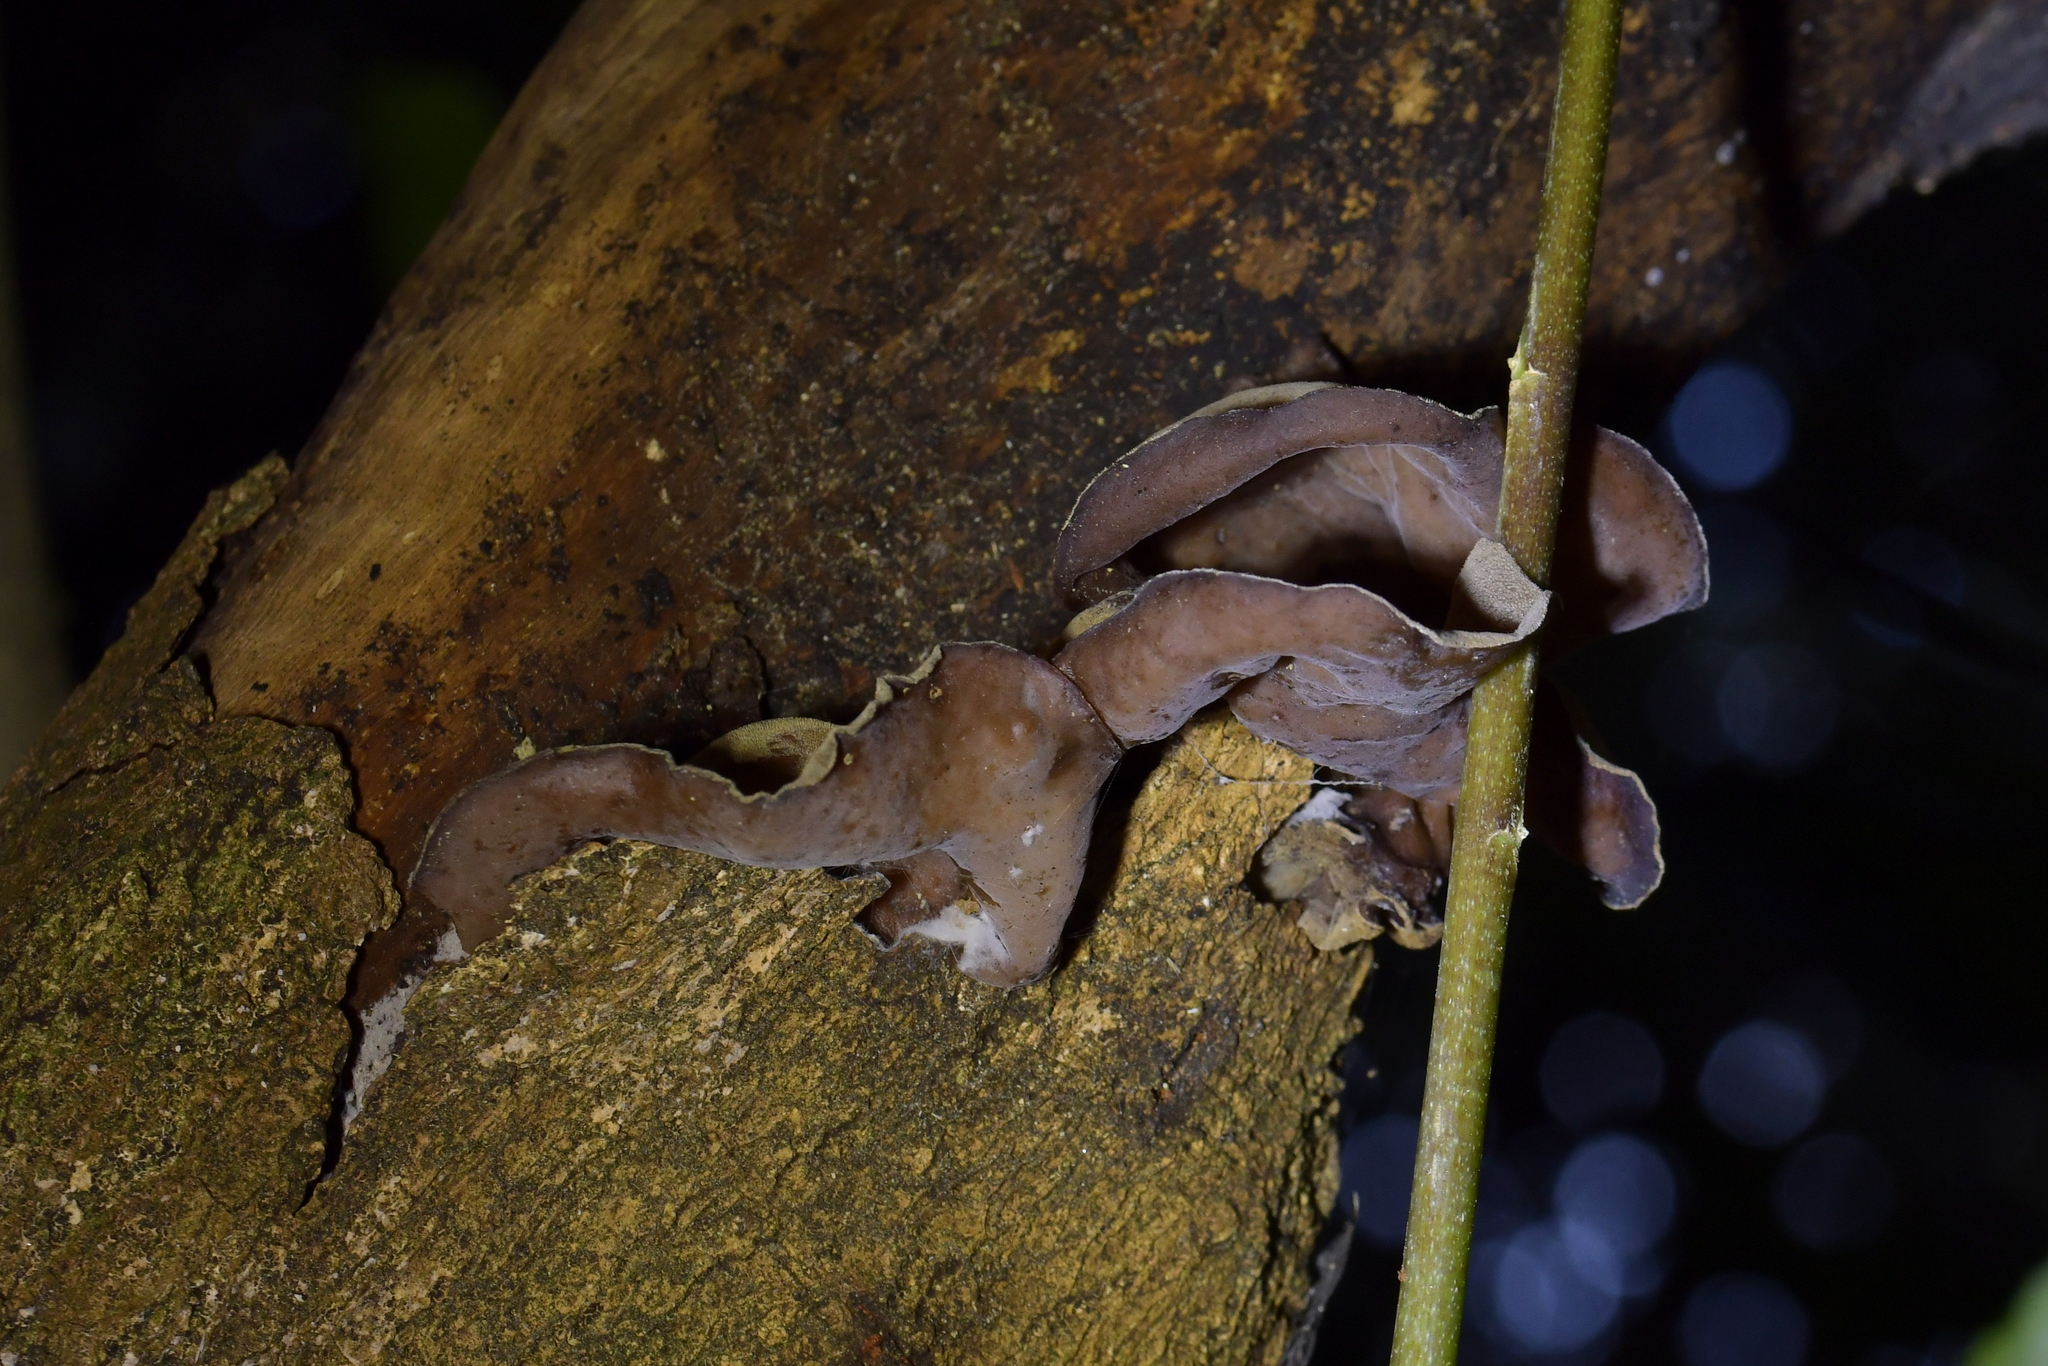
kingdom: Fungi
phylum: Basidiomycota
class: Agaricomycetes
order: Auriculariales
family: Auriculariaceae
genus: Auricularia
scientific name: Auricularia cornea
